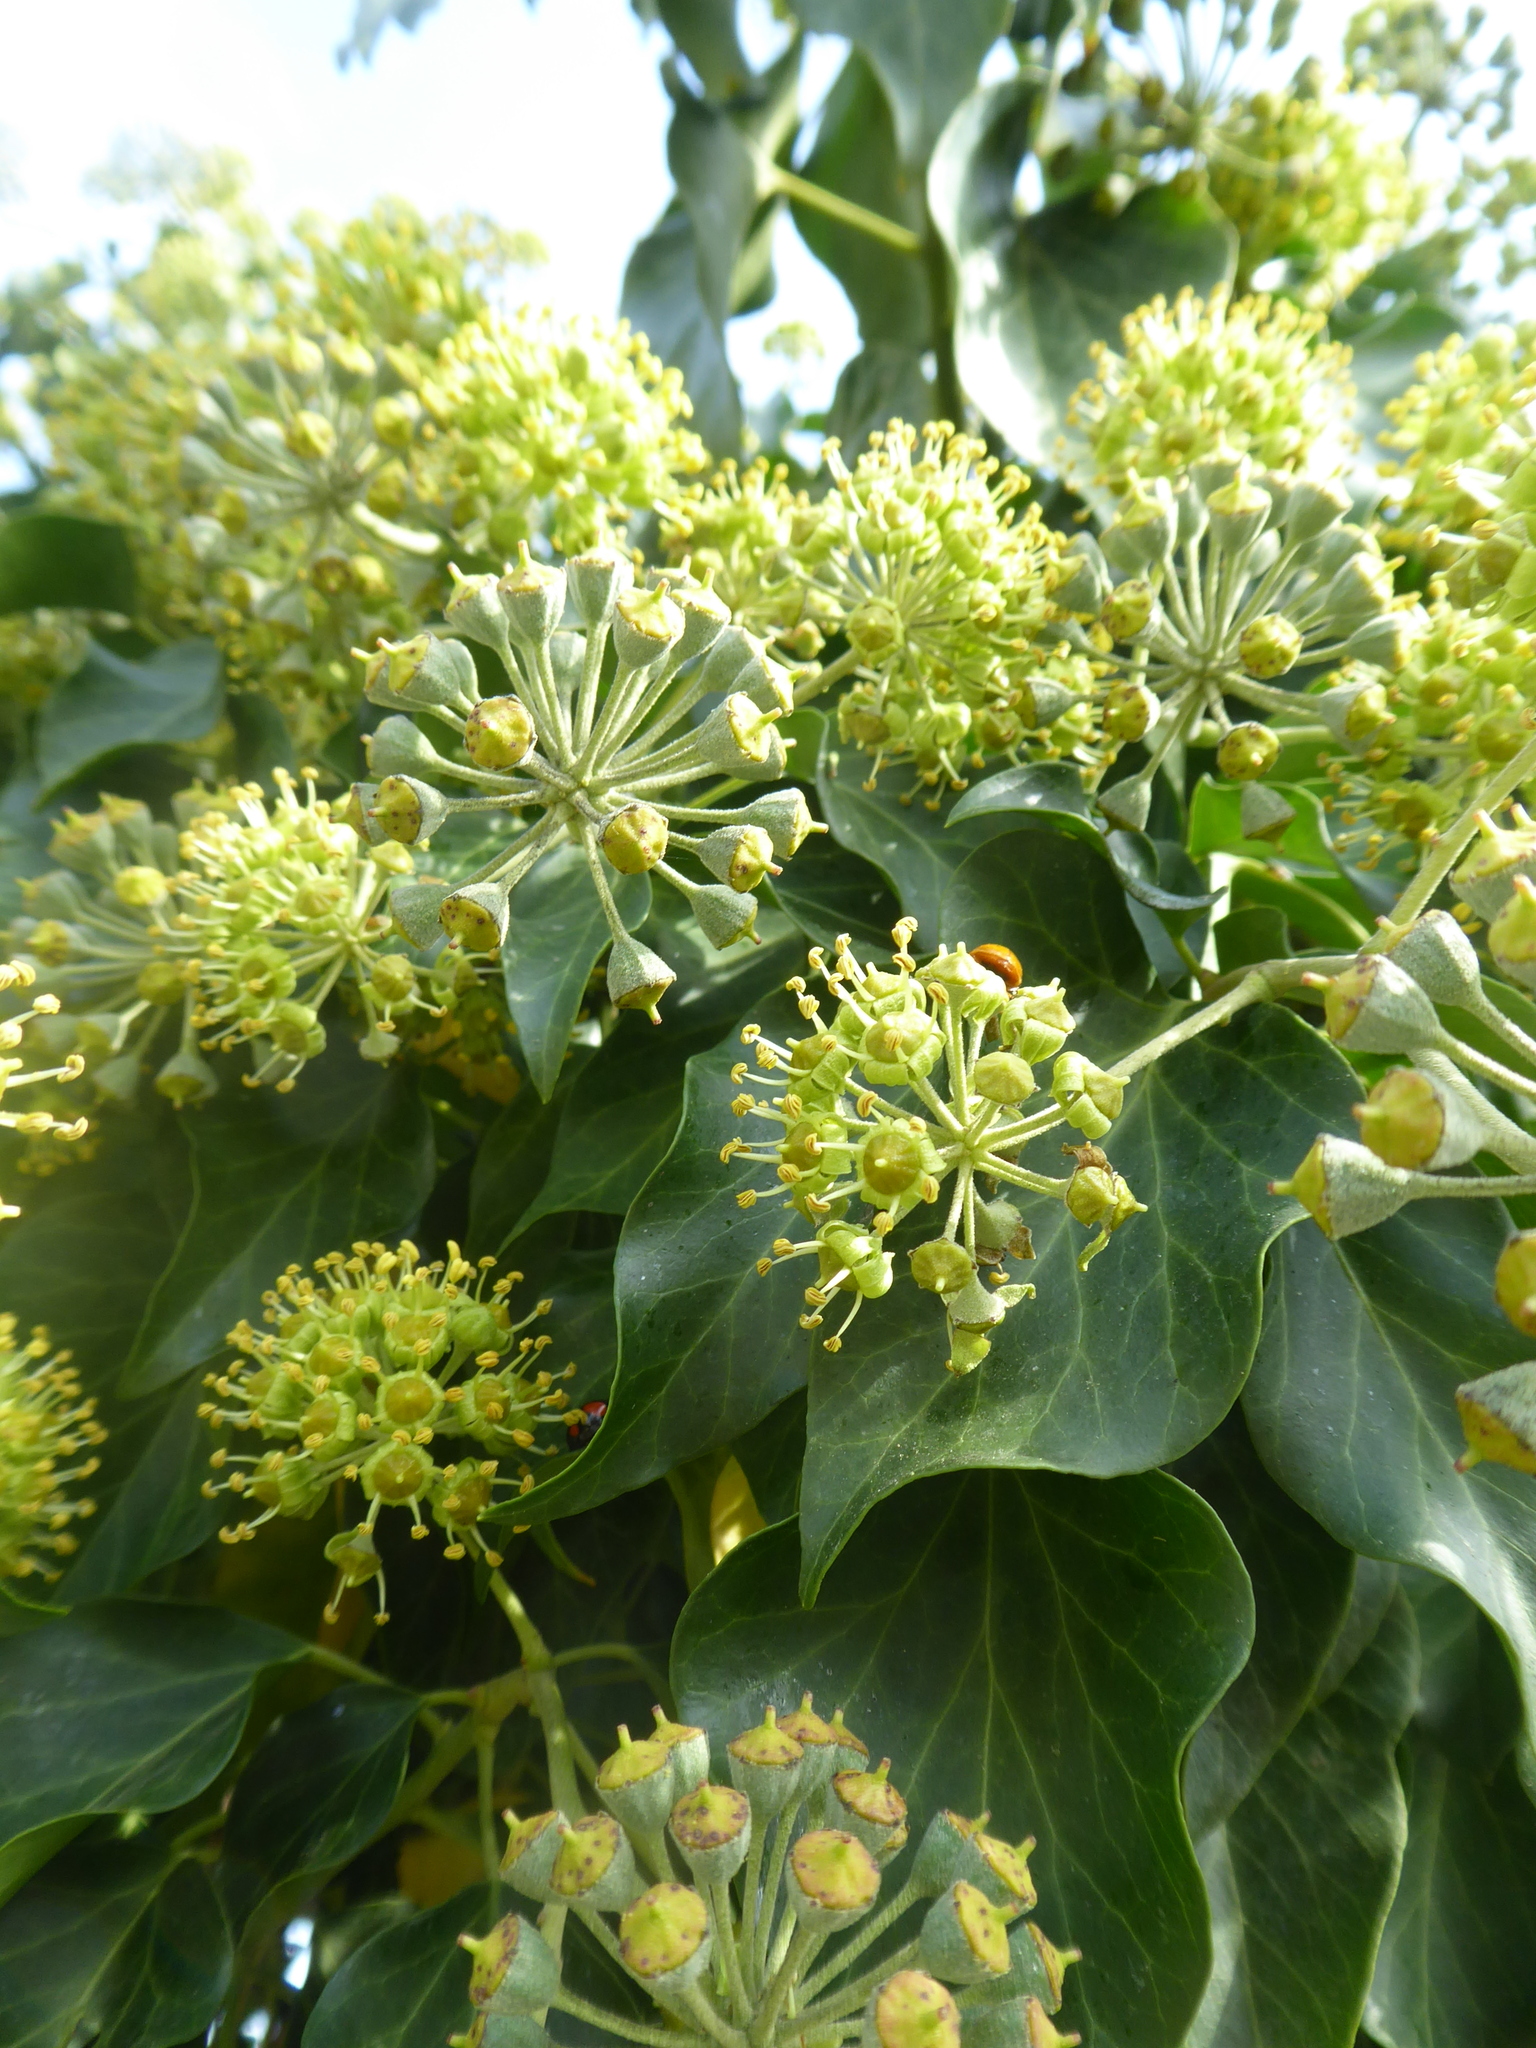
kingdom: Plantae
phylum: Tracheophyta
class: Magnoliopsida
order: Apiales
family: Araliaceae
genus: Hedera
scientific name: Hedera helix
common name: Ivy
